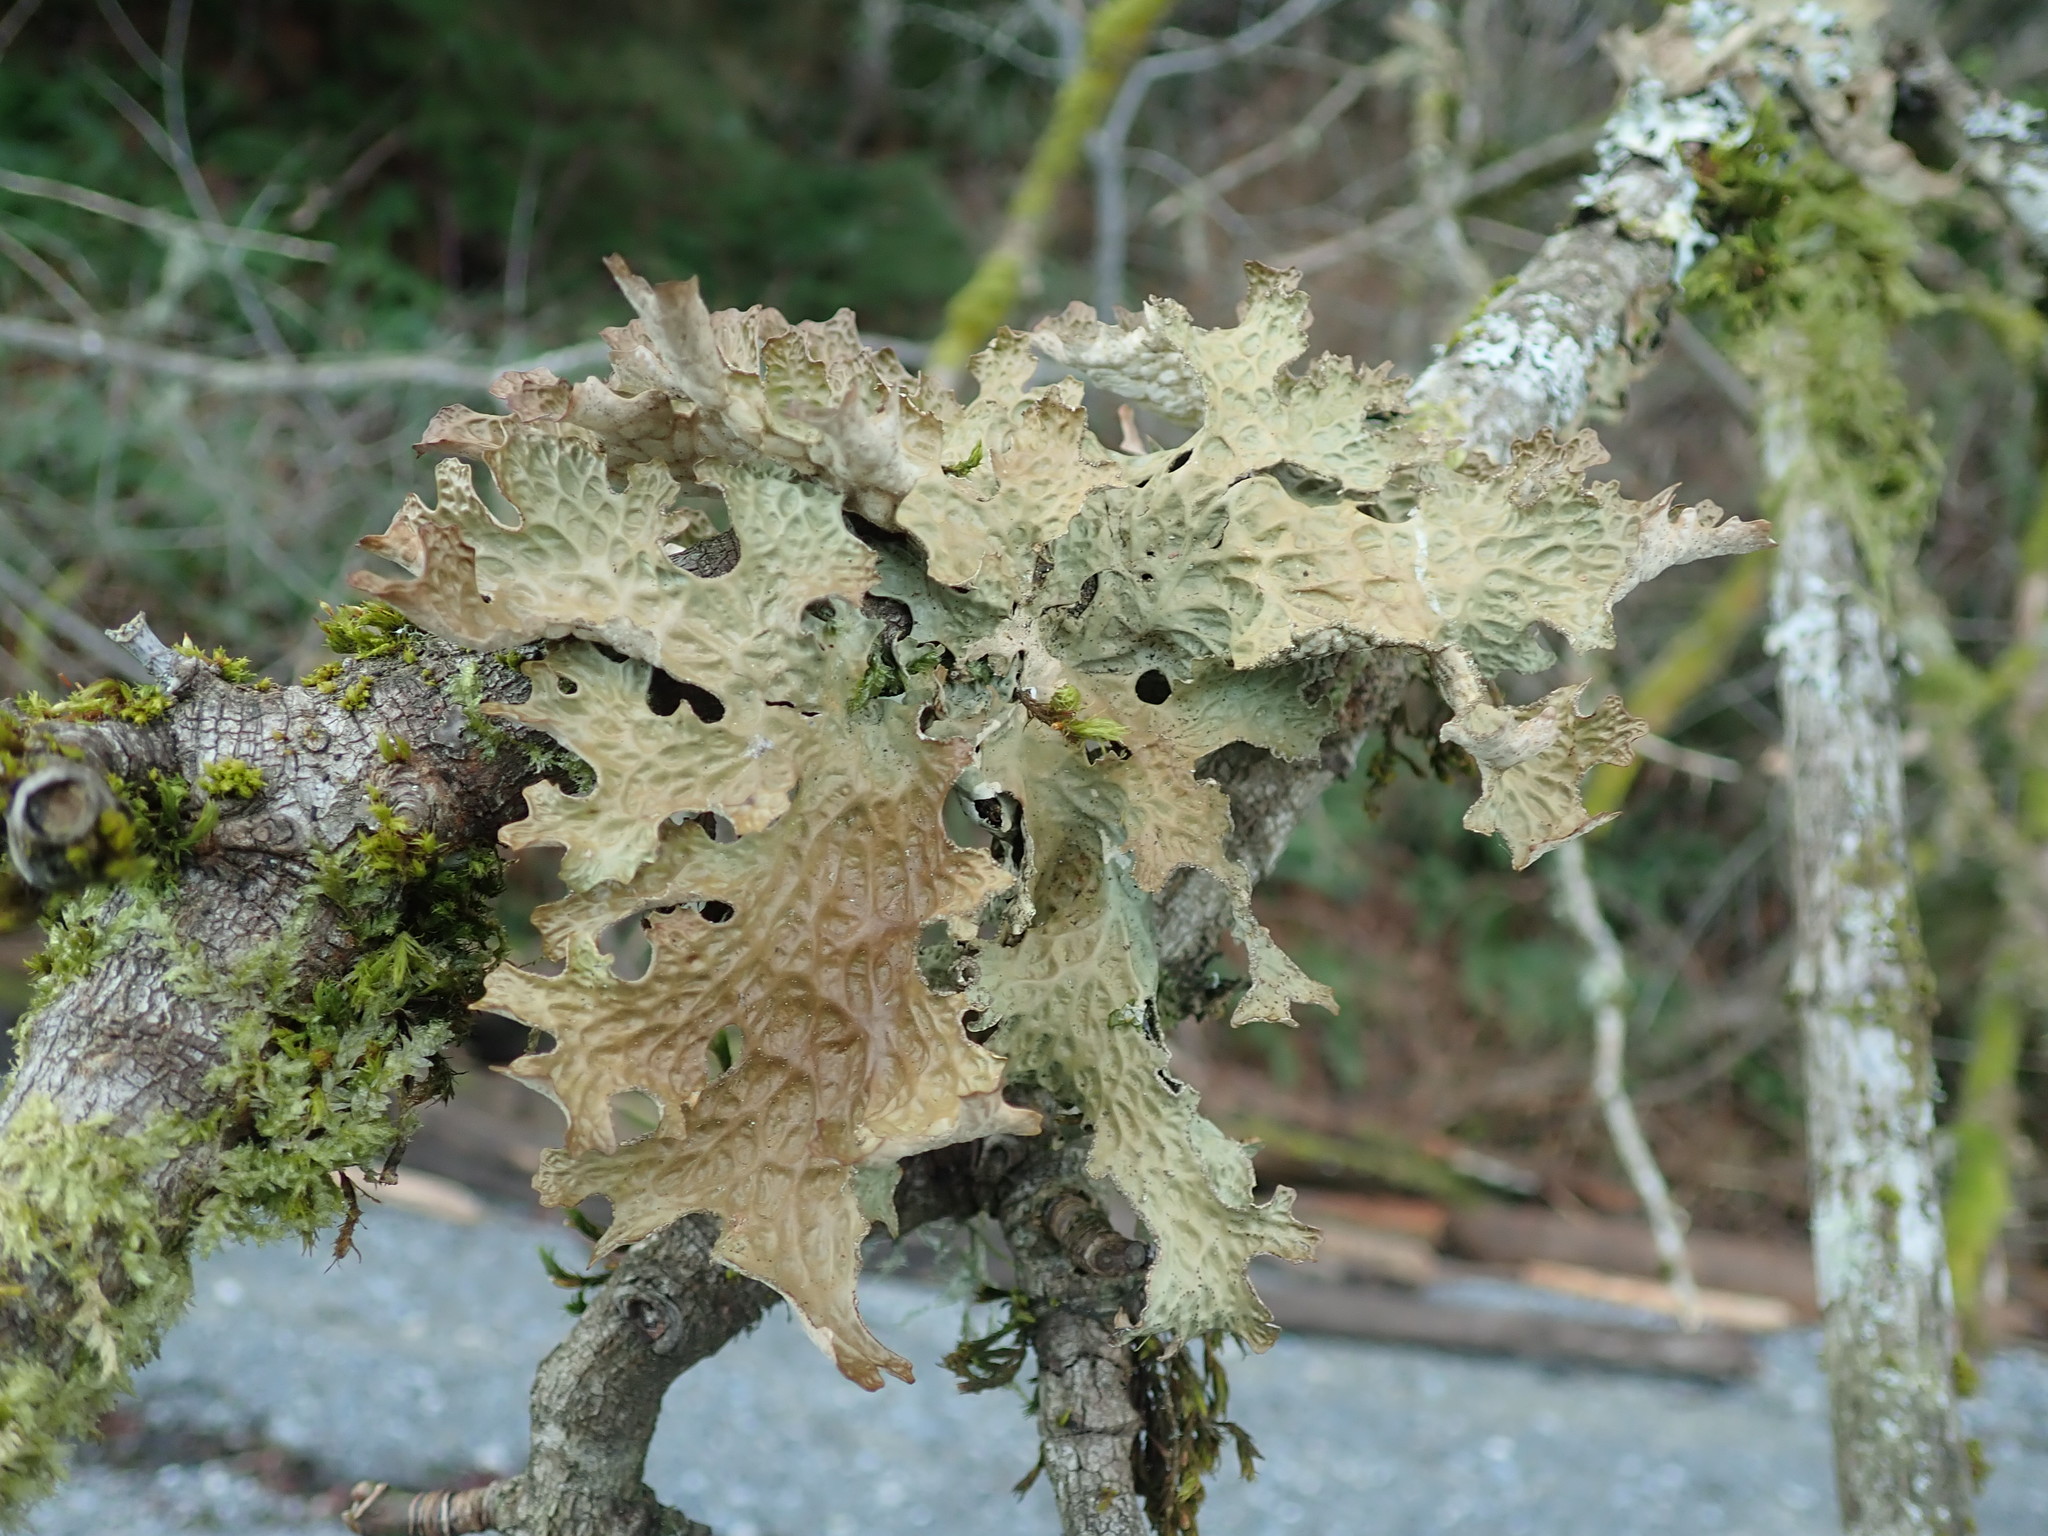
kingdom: Fungi
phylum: Ascomycota
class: Lecanoromycetes
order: Peltigerales
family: Lobariaceae
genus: Lobaria
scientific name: Lobaria pulmonaria
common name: Lungwort
